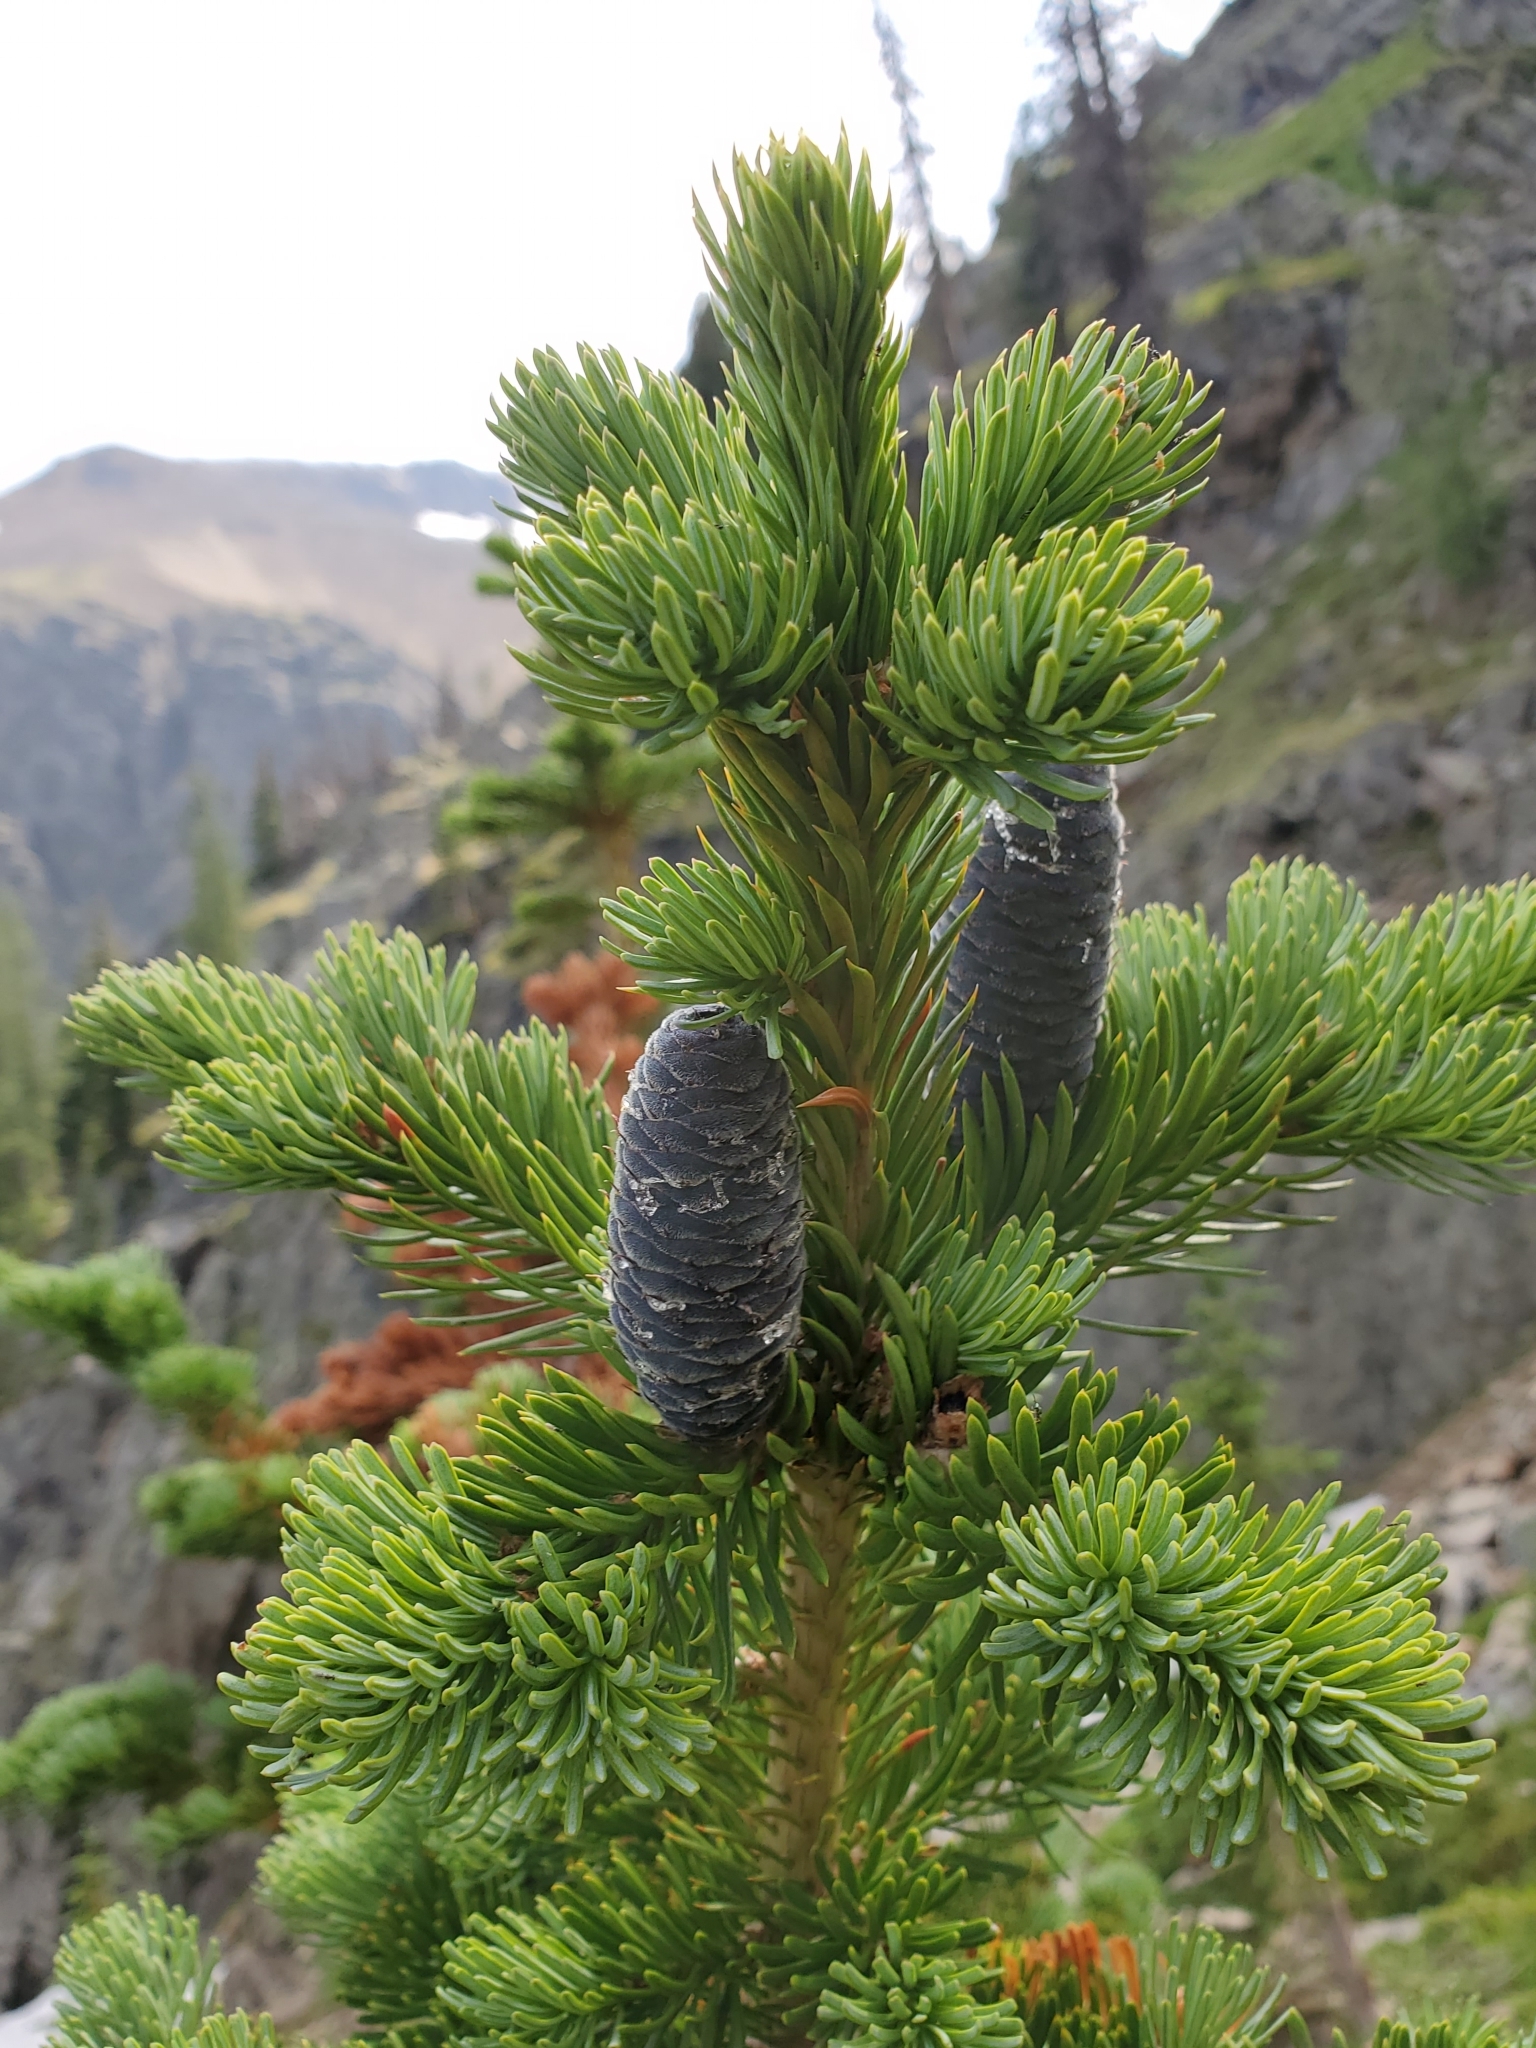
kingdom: Plantae
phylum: Tracheophyta
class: Pinopsida
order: Pinales
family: Pinaceae
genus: Abies
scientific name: Abies lasiocarpa
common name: Subalpine fir
